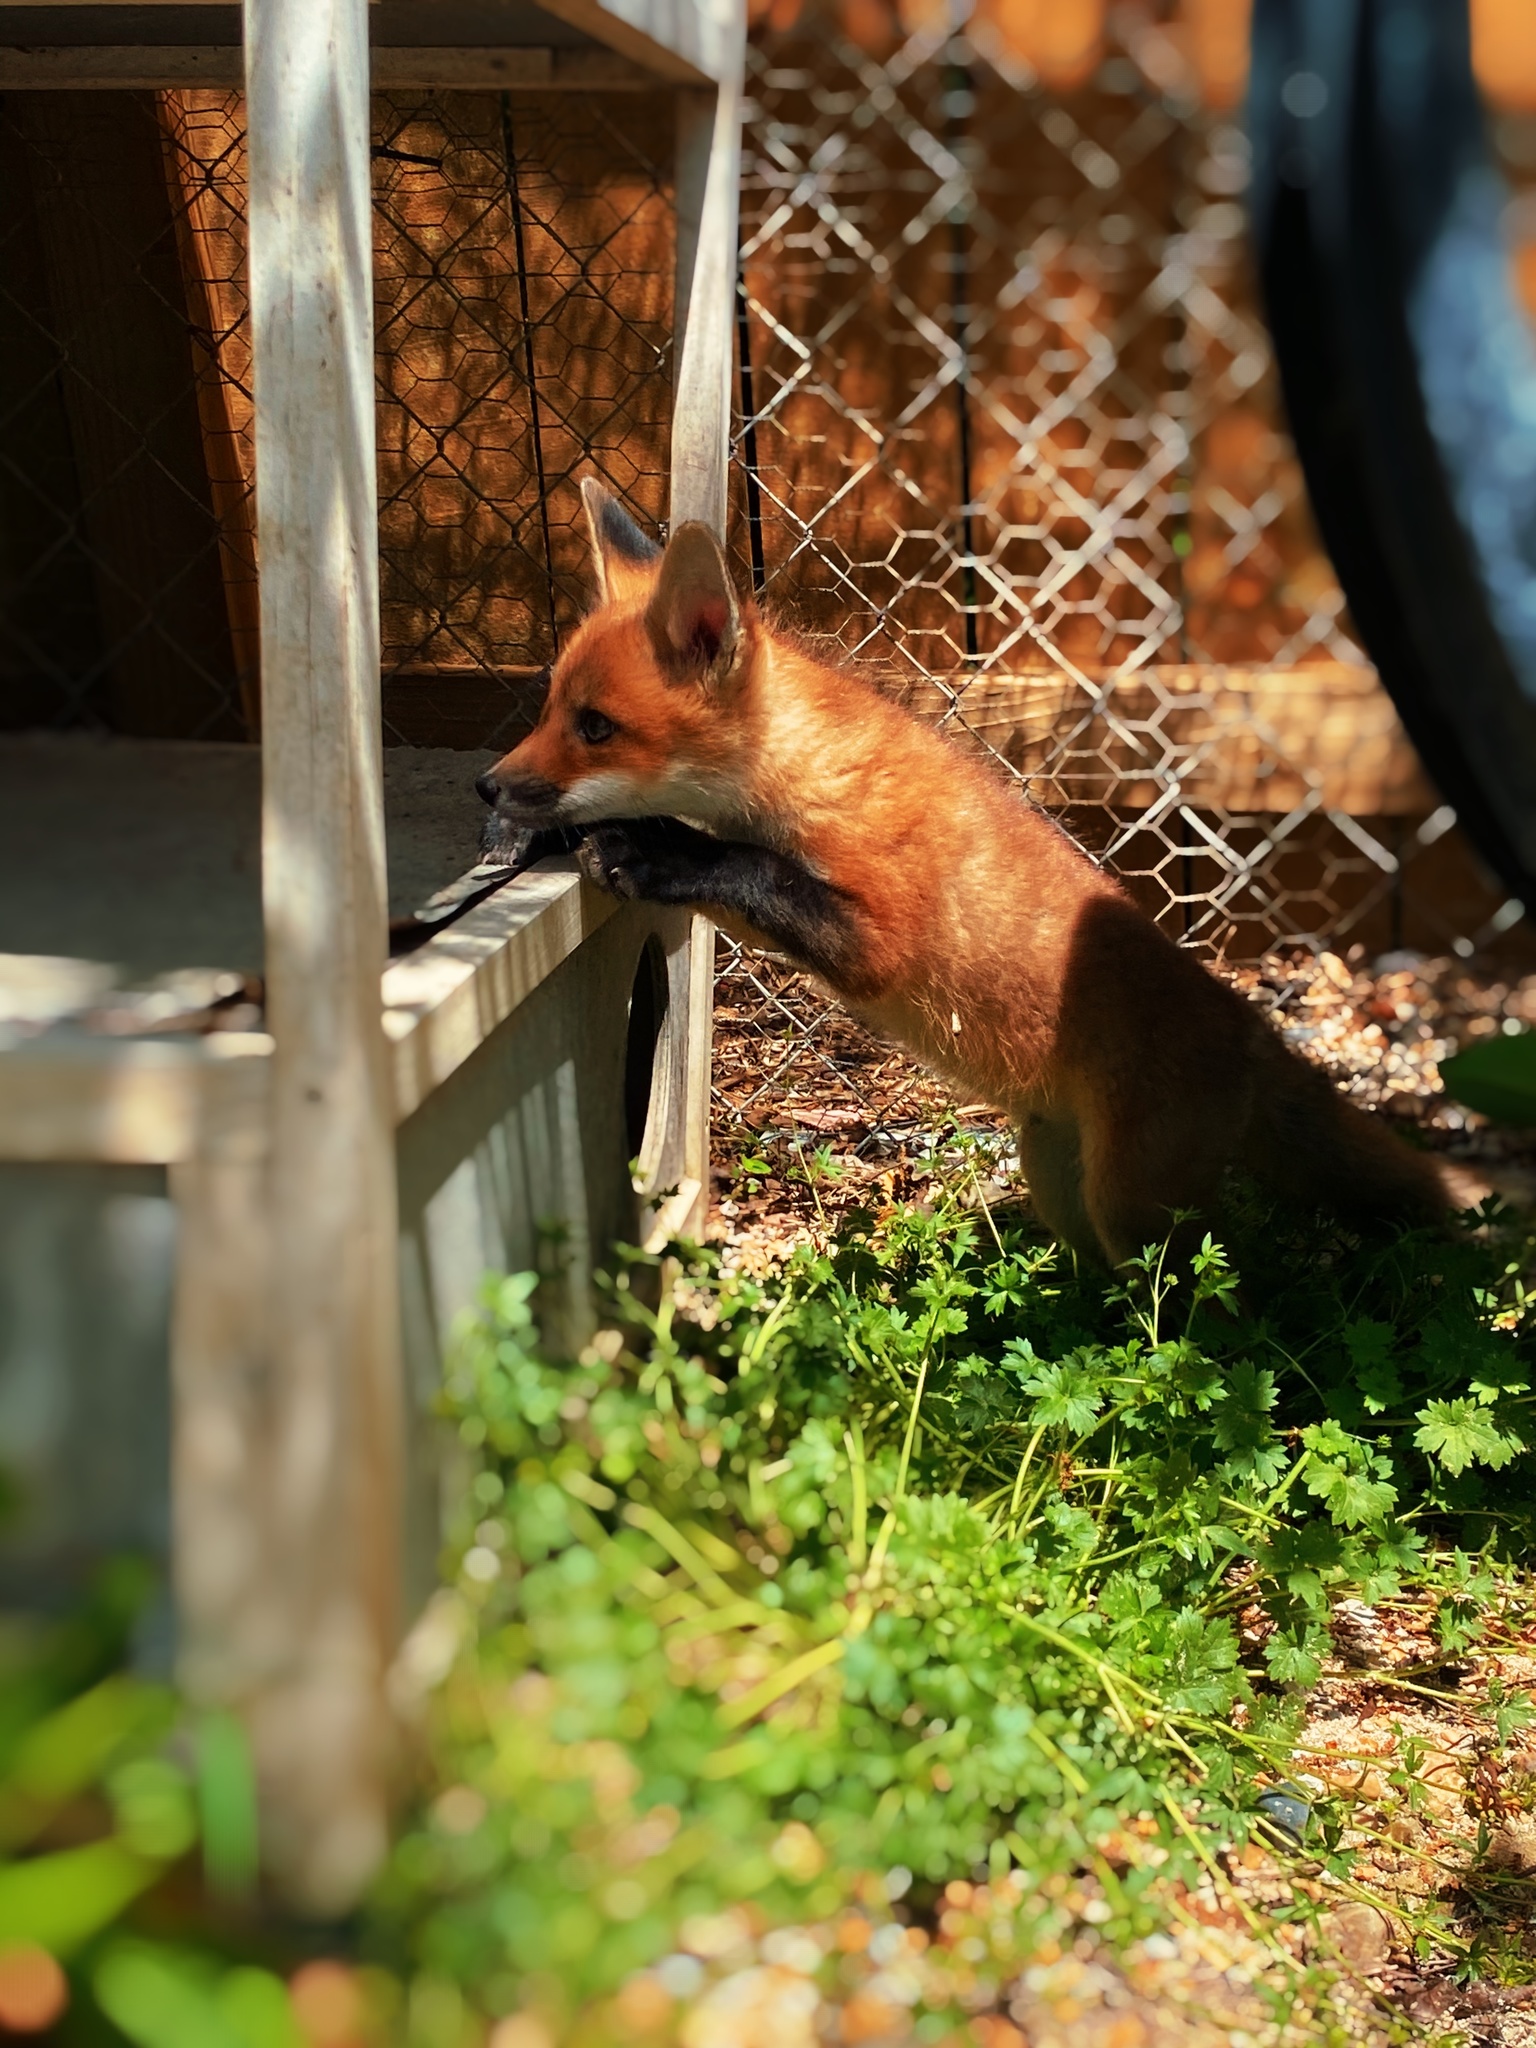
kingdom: Animalia
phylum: Chordata
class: Mammalia
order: Carnivora
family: Canidae
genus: Vulpes
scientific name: Vulpes vulpes
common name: Red fox
